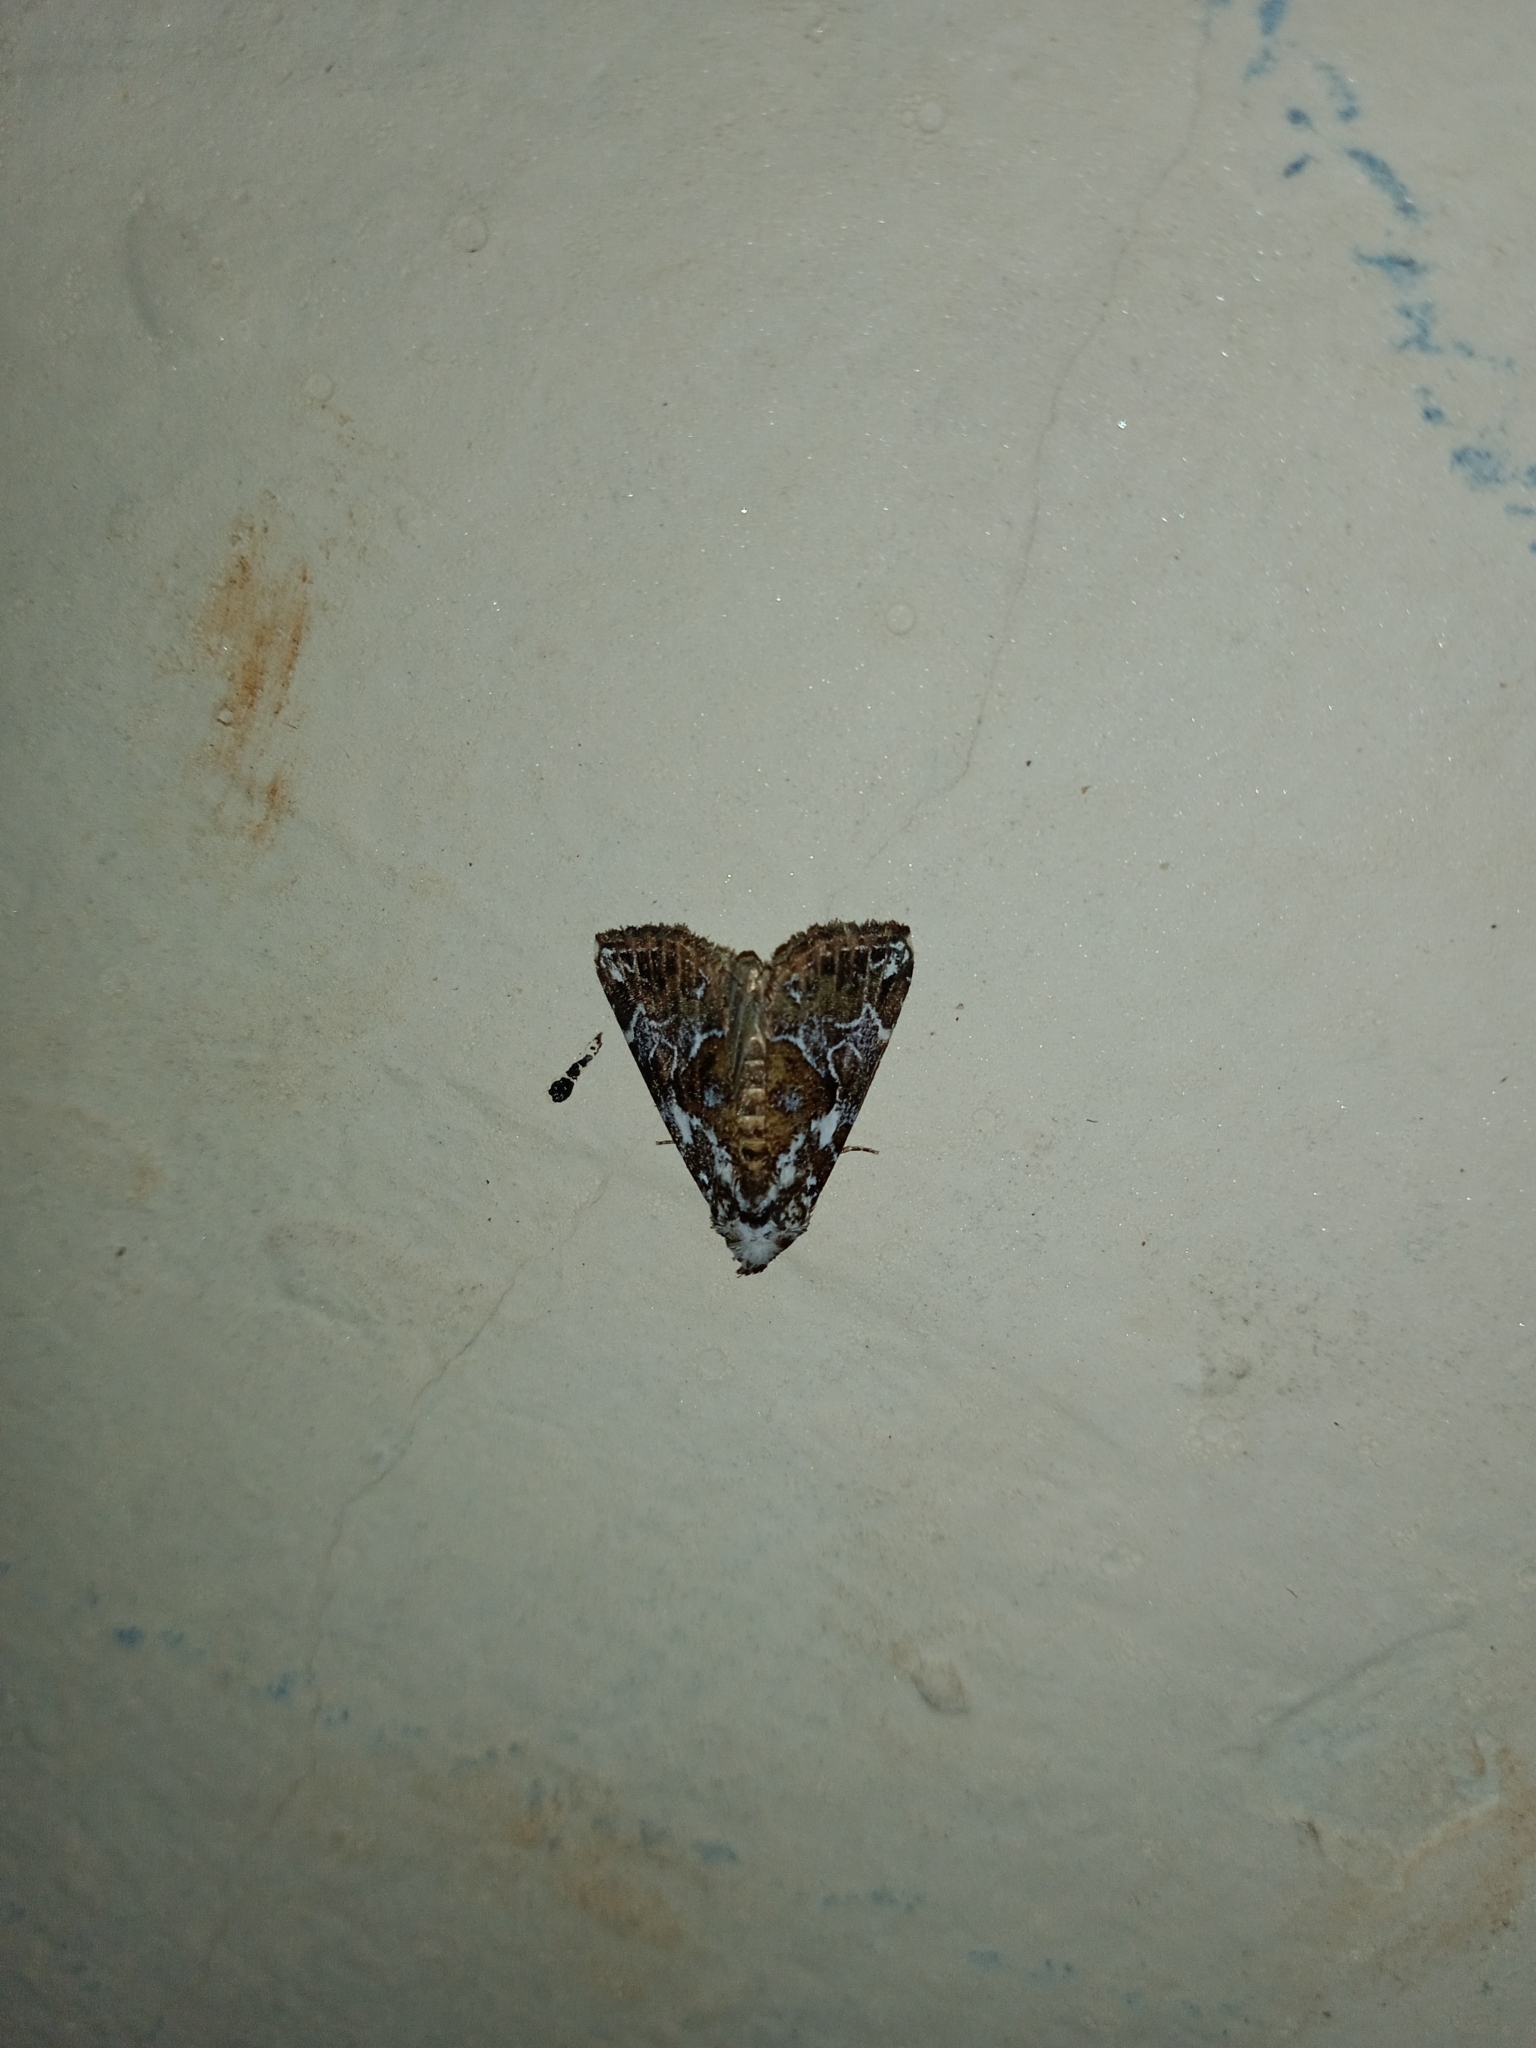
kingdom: Animalia
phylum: Arthropoda
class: Insecta
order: Lepidoptera
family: Erebidae
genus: Chorsia
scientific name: Chorsia albiscriptus
